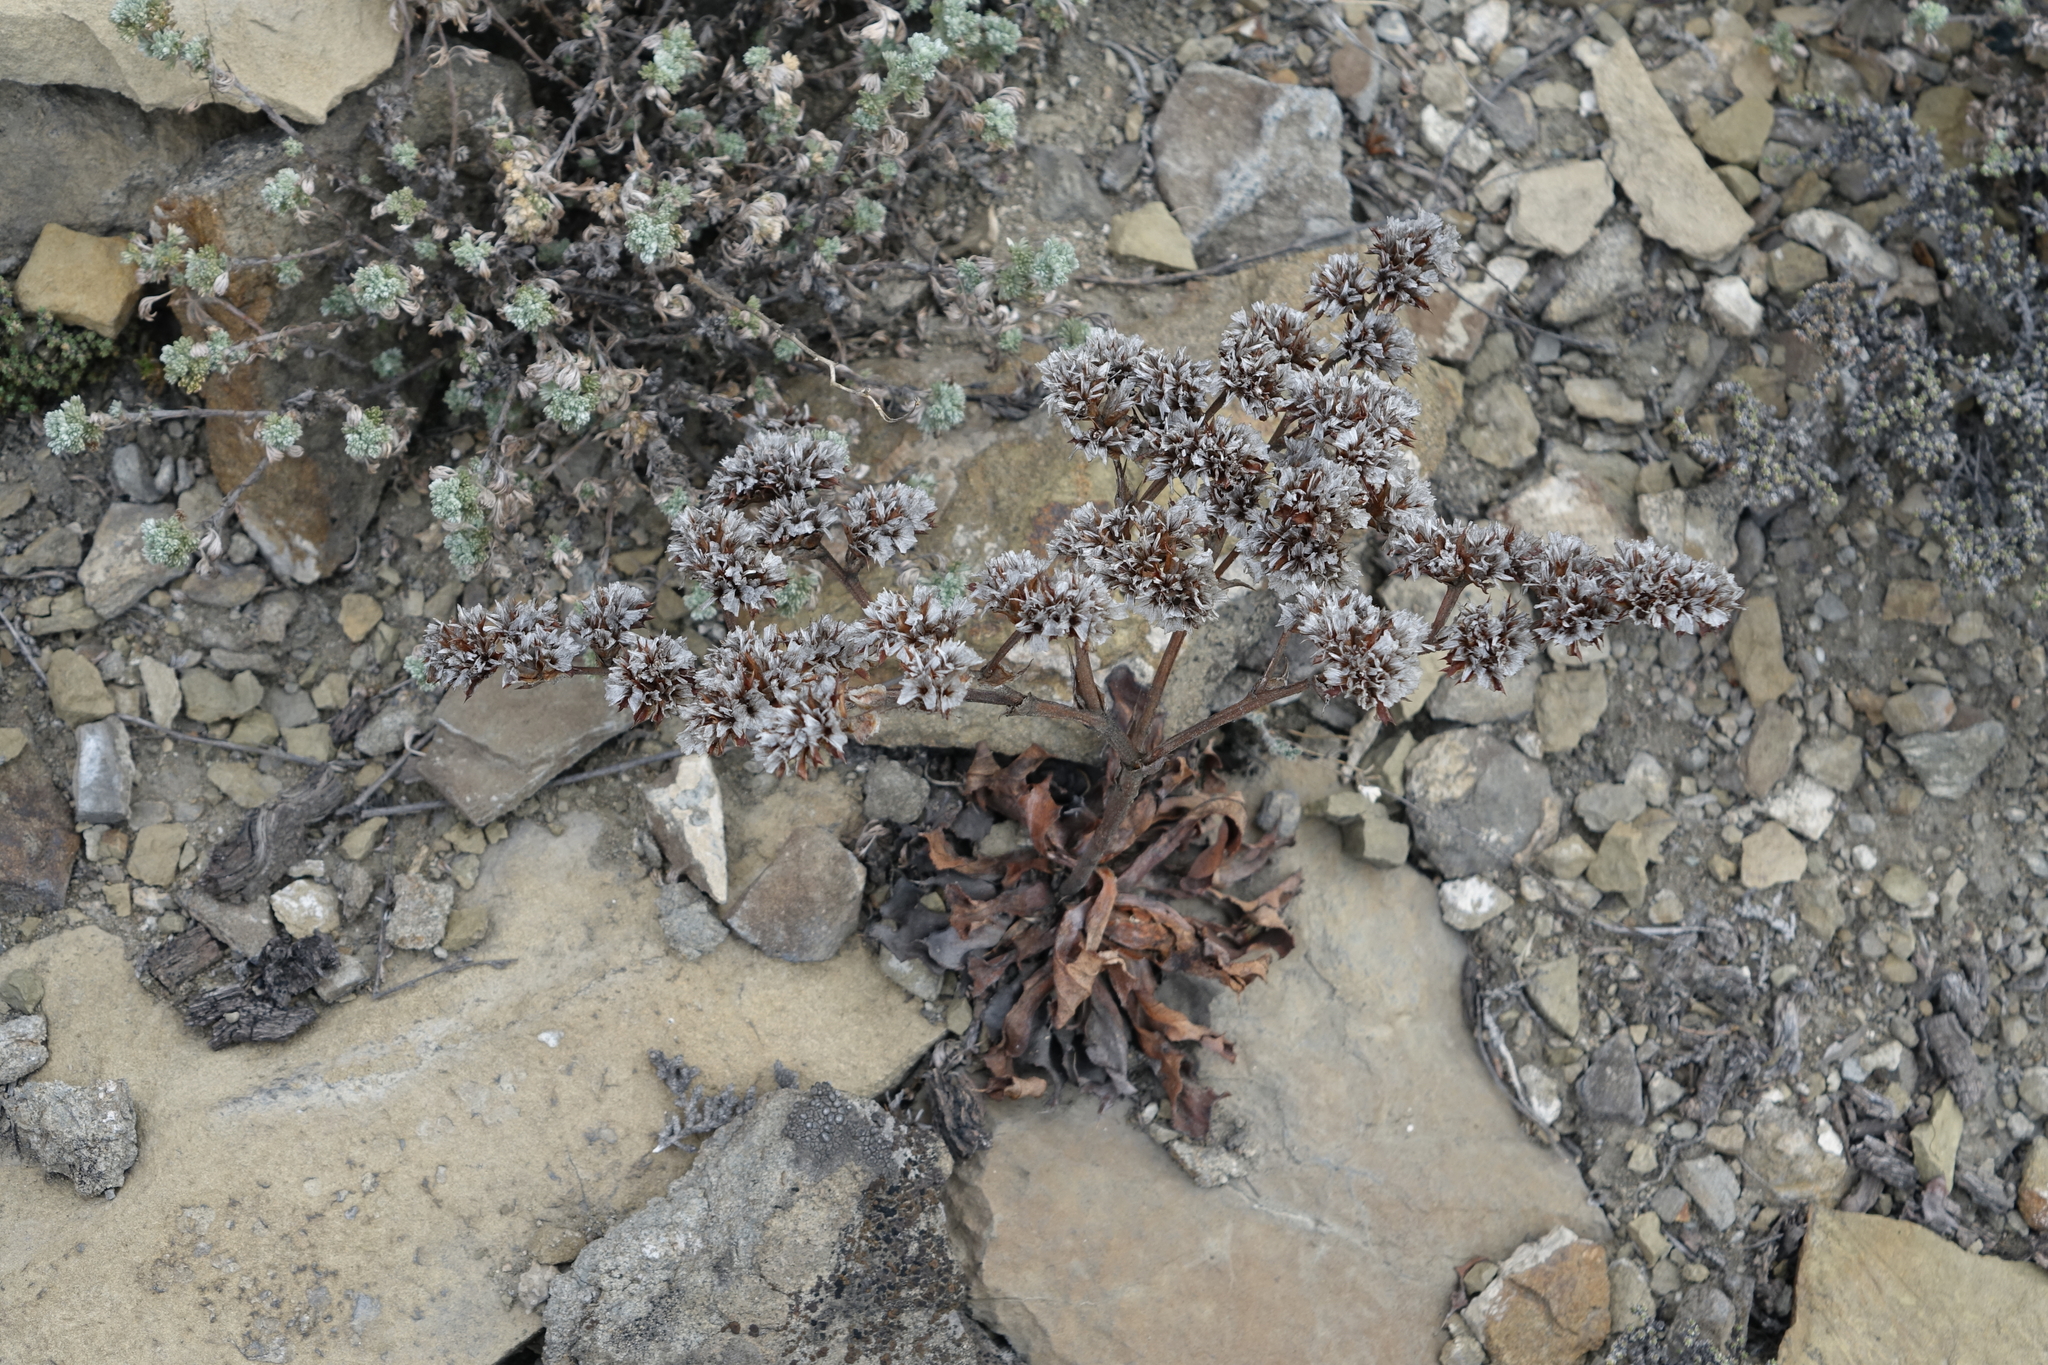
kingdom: Plantae
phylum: Tracheophyta
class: Magnoliopsida
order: Caryophyllales
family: Plumbaginaceae
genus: Goniolimon
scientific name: Goniolimon speciosum
